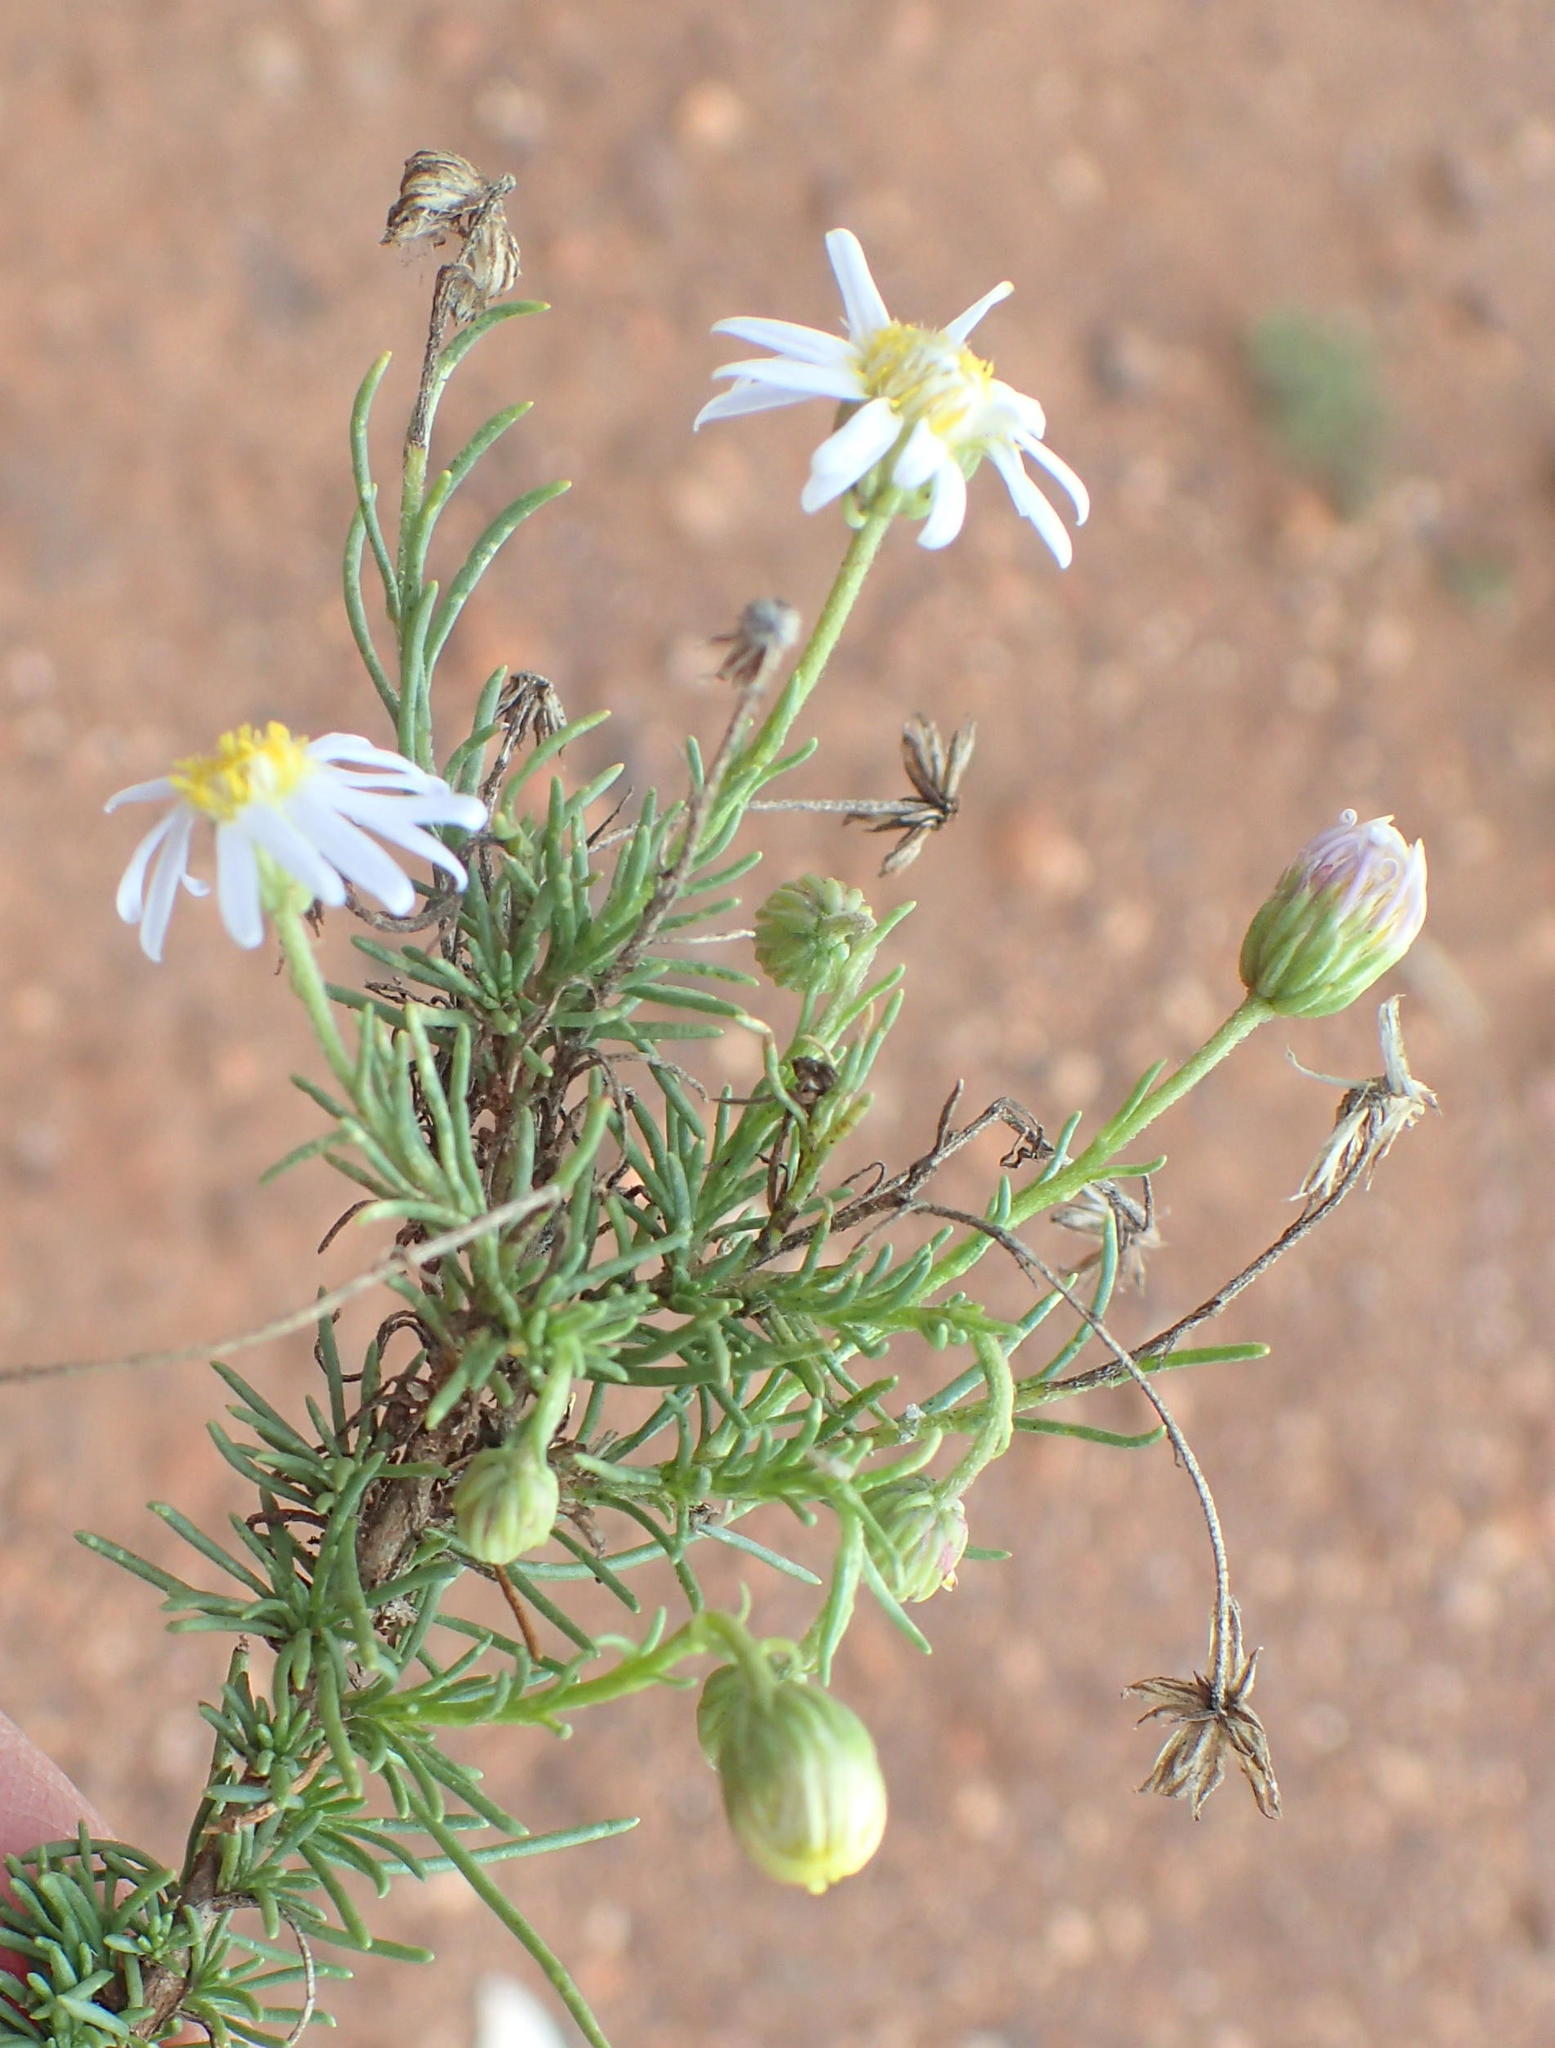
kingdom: Plantae
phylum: Tracheophyta
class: Magnoliopsida
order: Asterales
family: Asteraceae
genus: Felicia
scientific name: Felicia muricata
